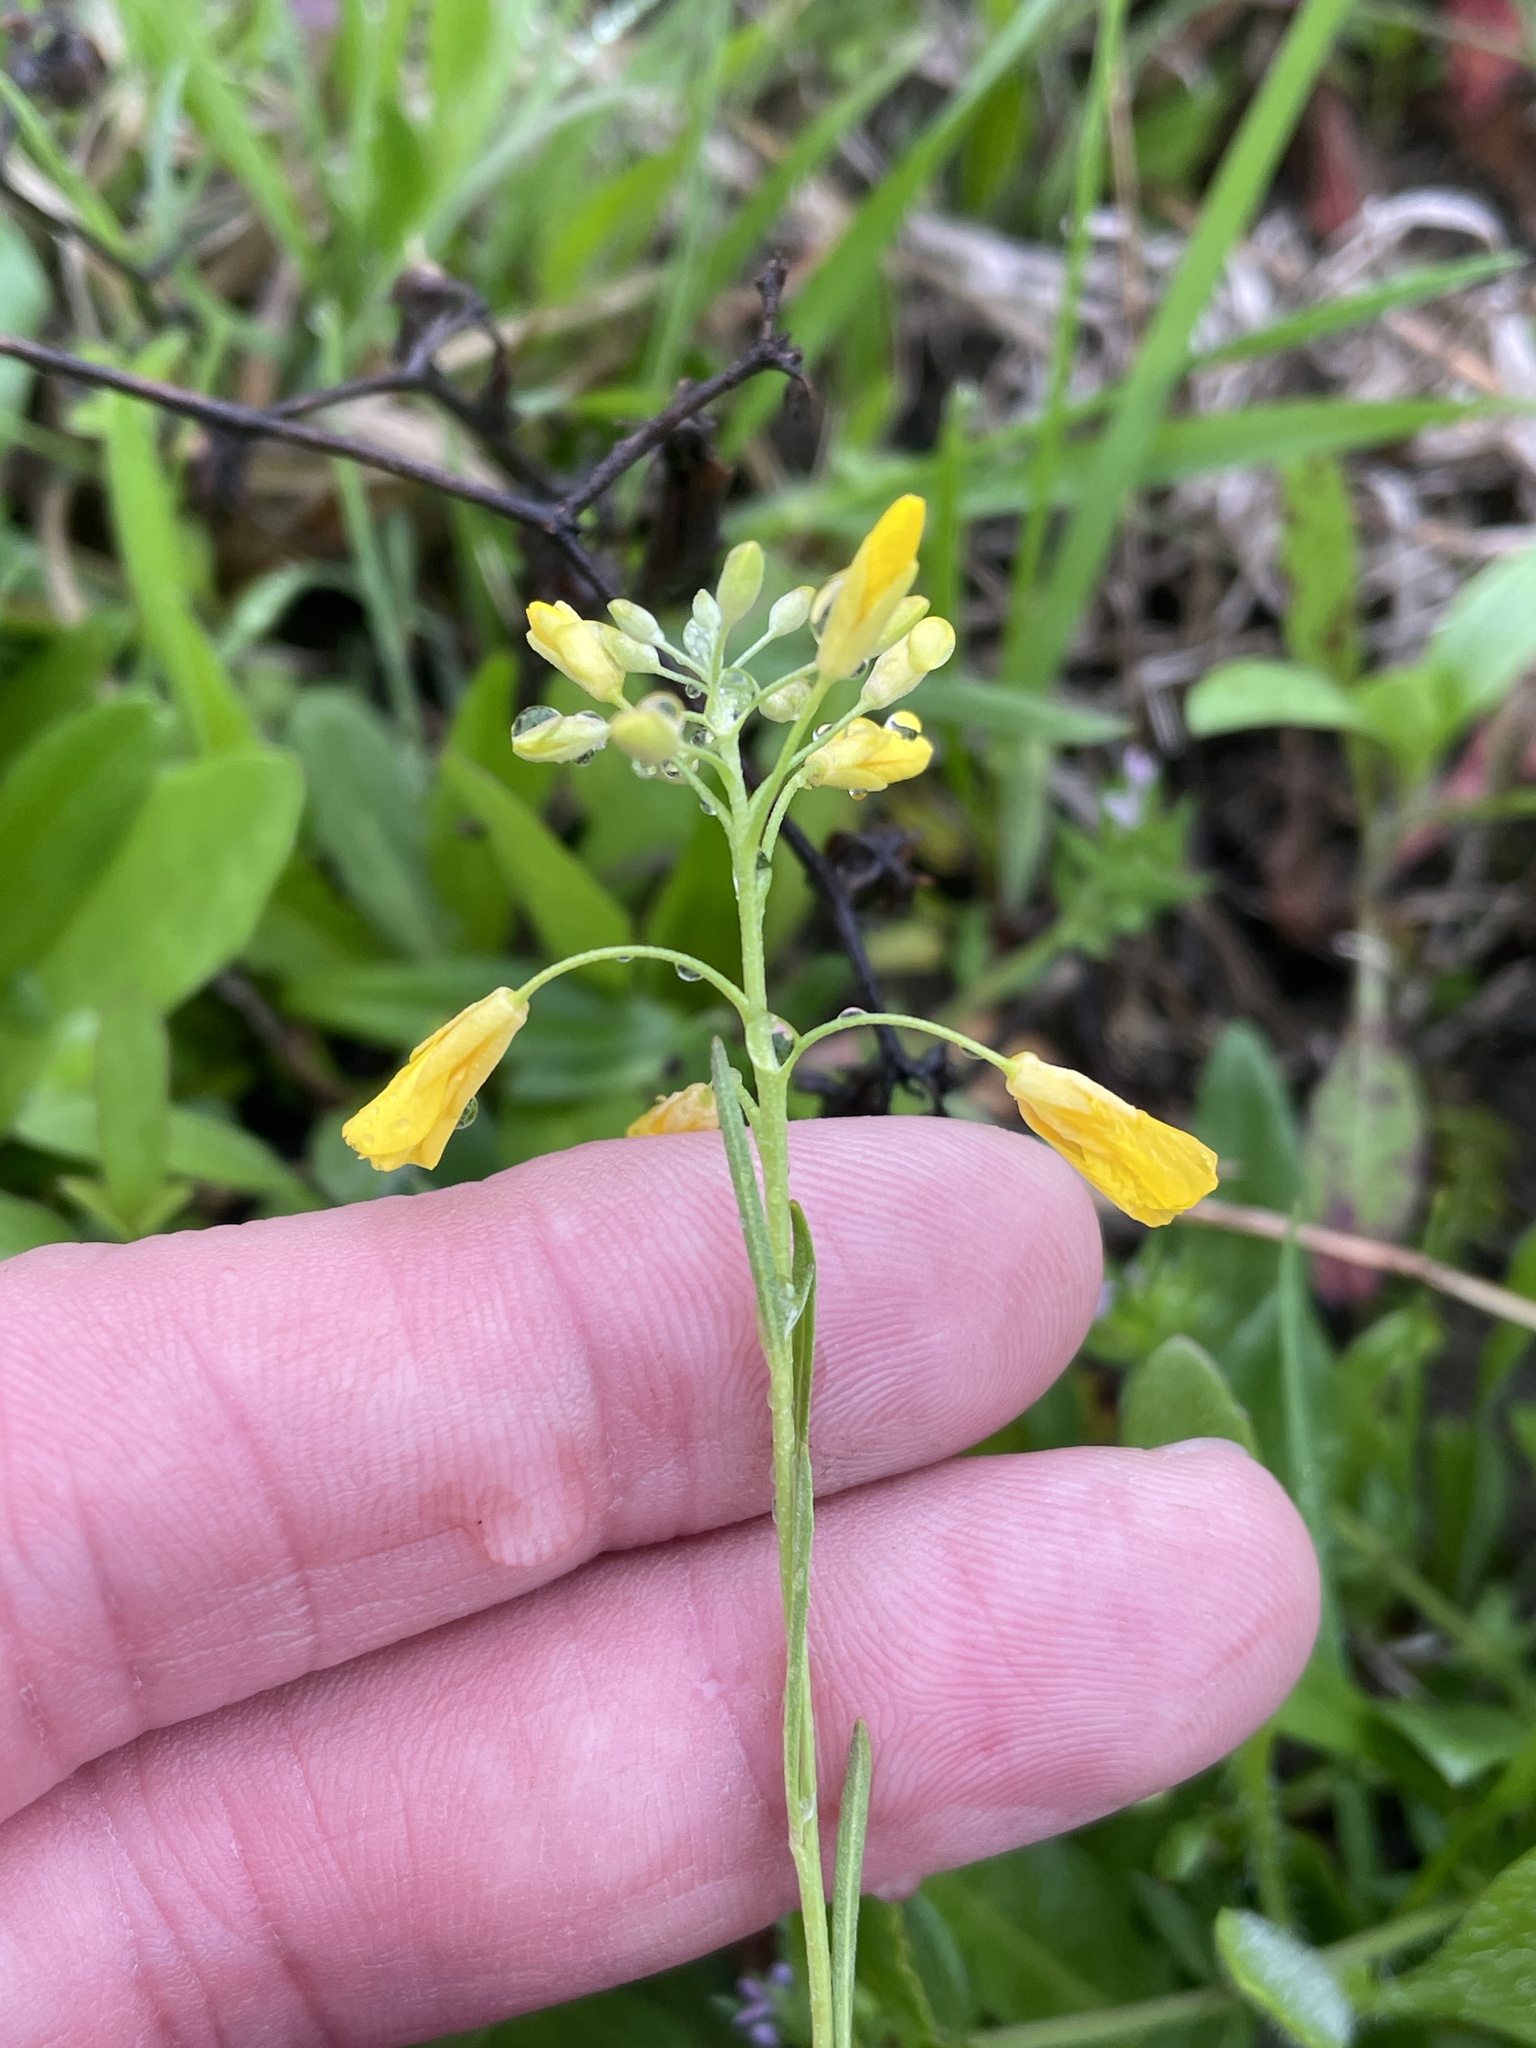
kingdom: Plantae
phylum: Tracheophyta
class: Magnoliopsida
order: Brassicales
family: Brassicaceae
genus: Physaria
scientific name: Physaria gracilis
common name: Spreading bladderpod
